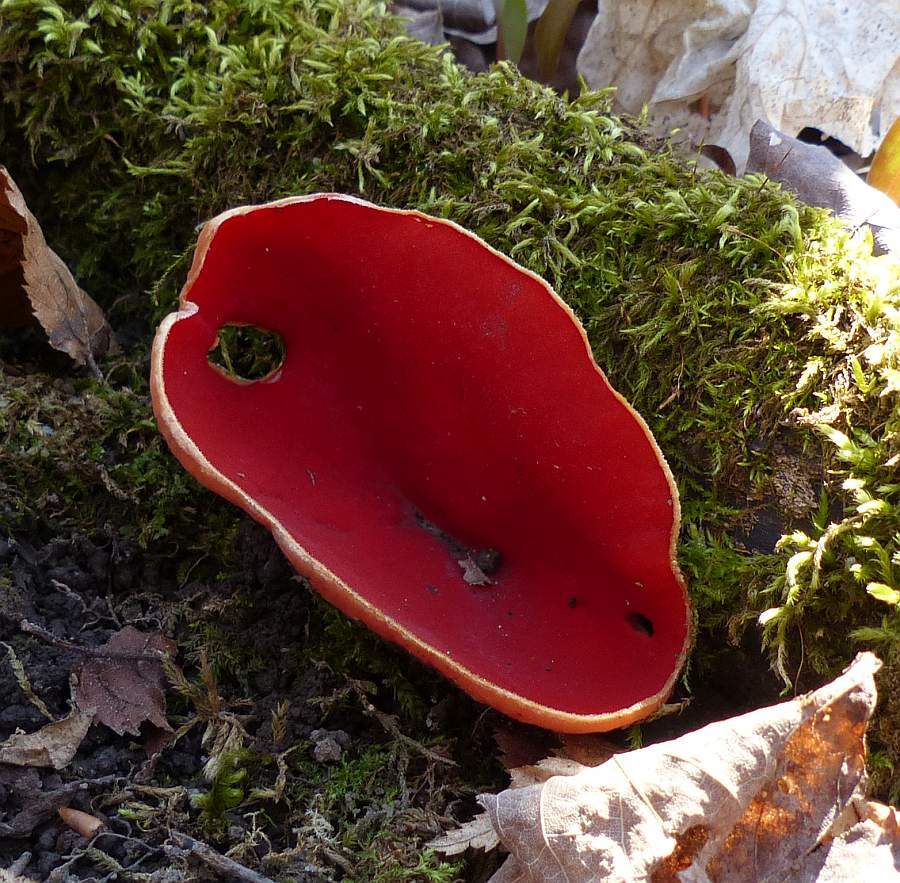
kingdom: Fungi
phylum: Ascomycota
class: Pezizomycetes
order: Pezizales
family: Sarcoscyphaceae
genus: Sarcoscypha
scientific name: Sarcoscypha austriaca
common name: Scarlet elfcup
